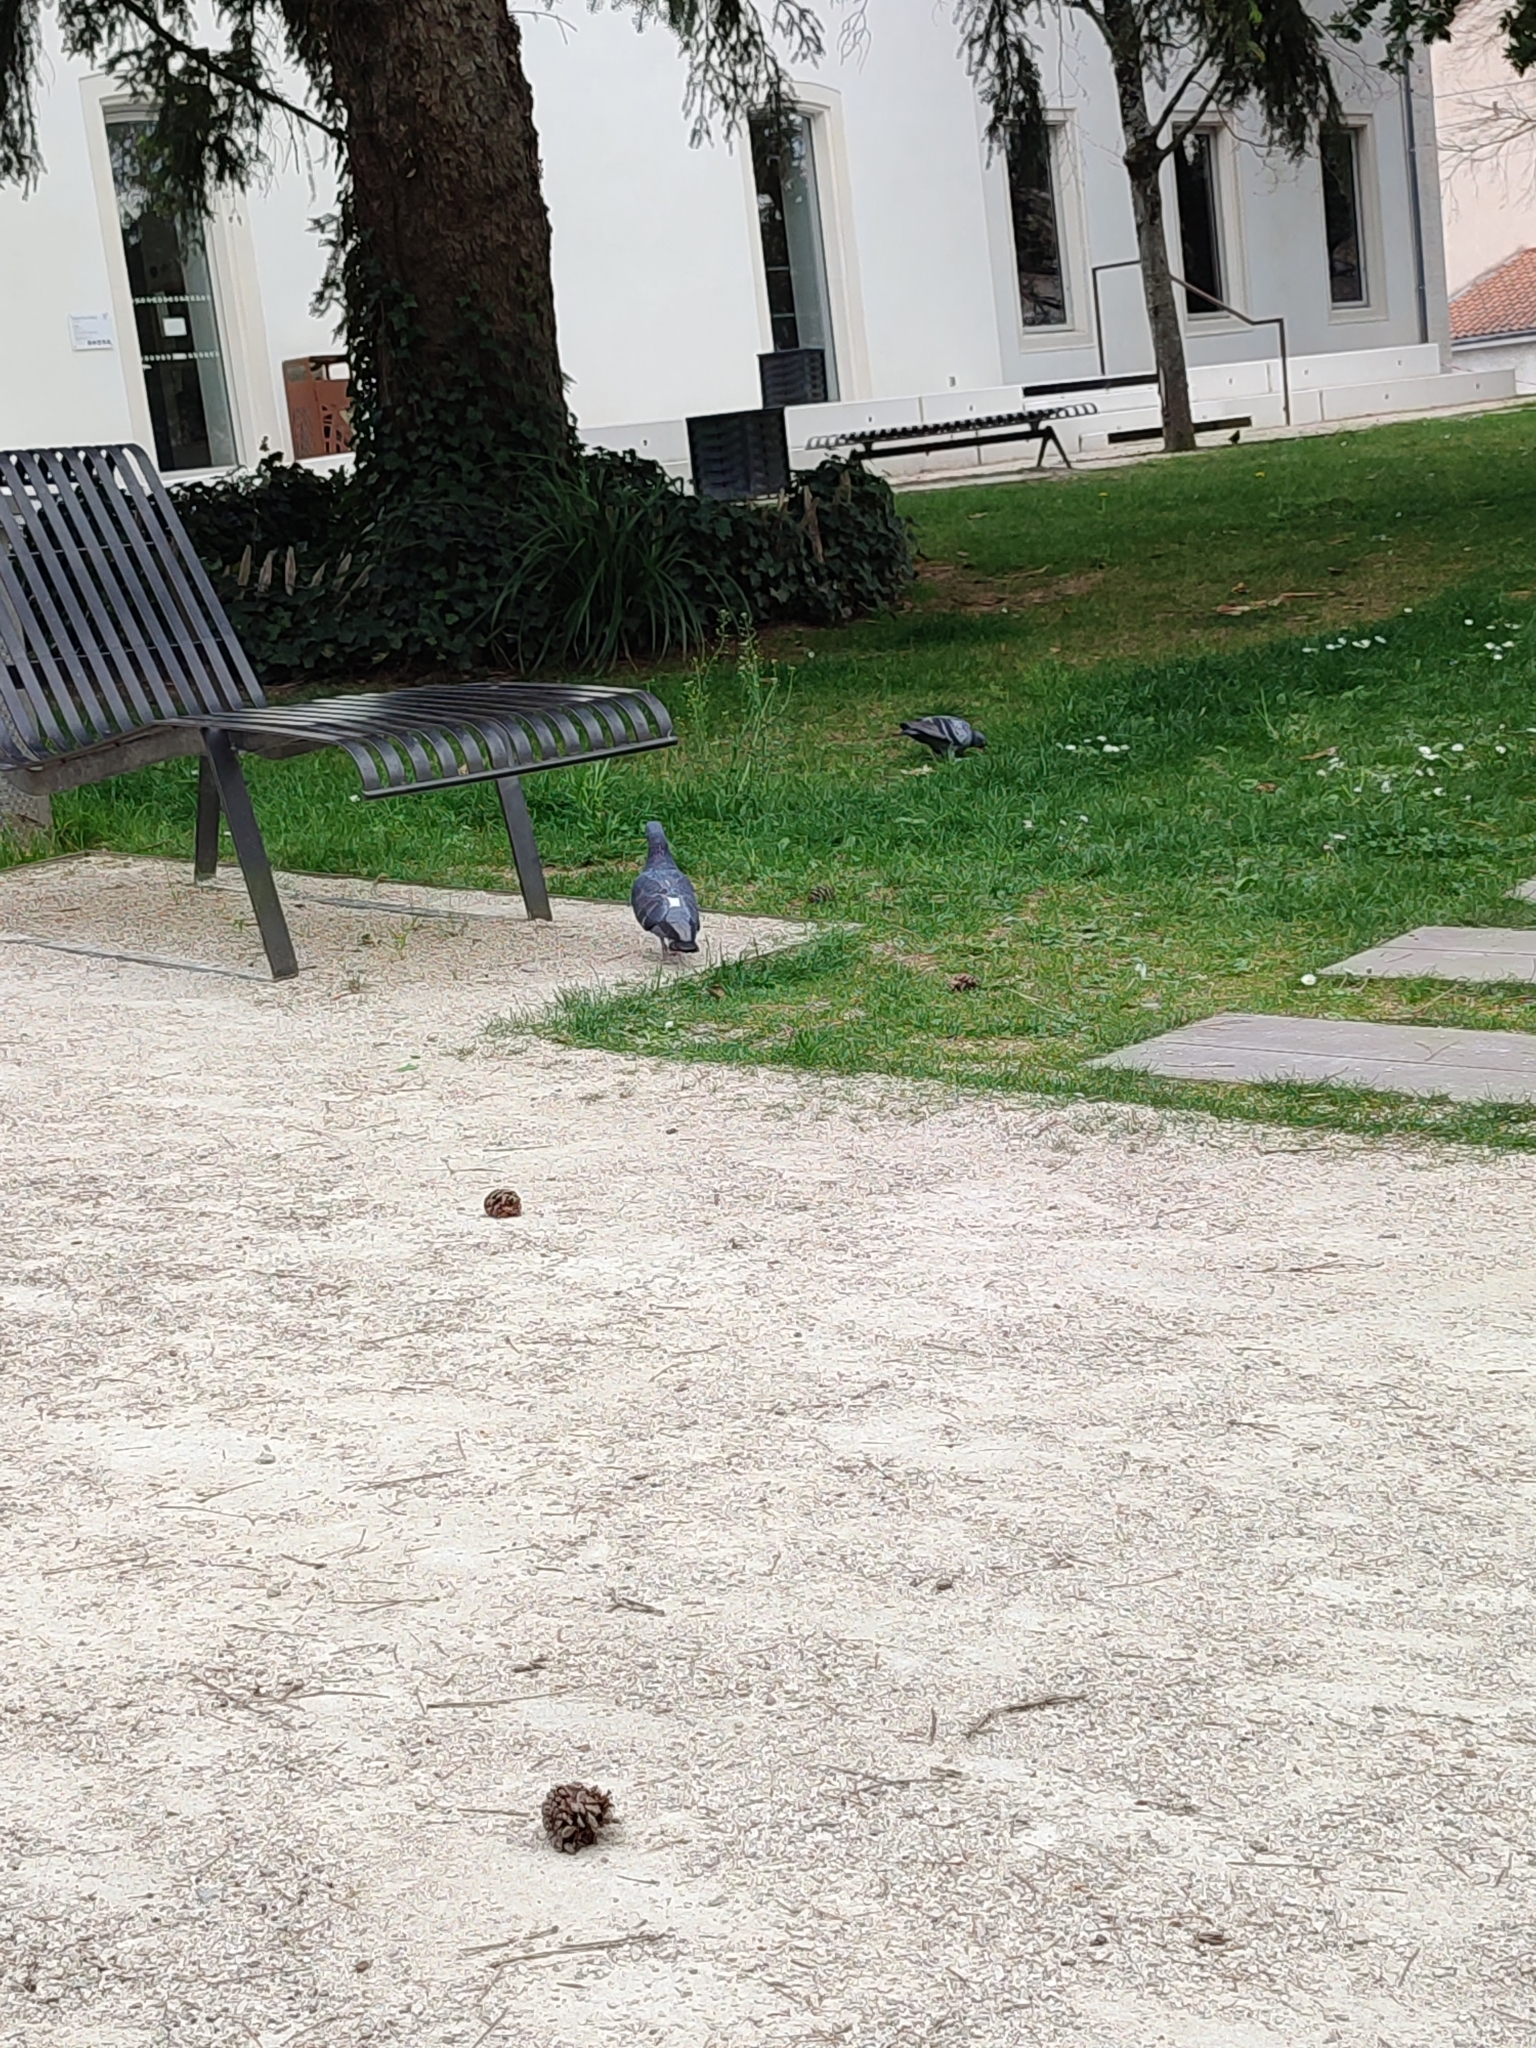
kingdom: Animalia
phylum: Chordata
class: Aves
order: Columbiformes
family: Columbidae
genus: Columba
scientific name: Columba livia
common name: Rock pigeon
